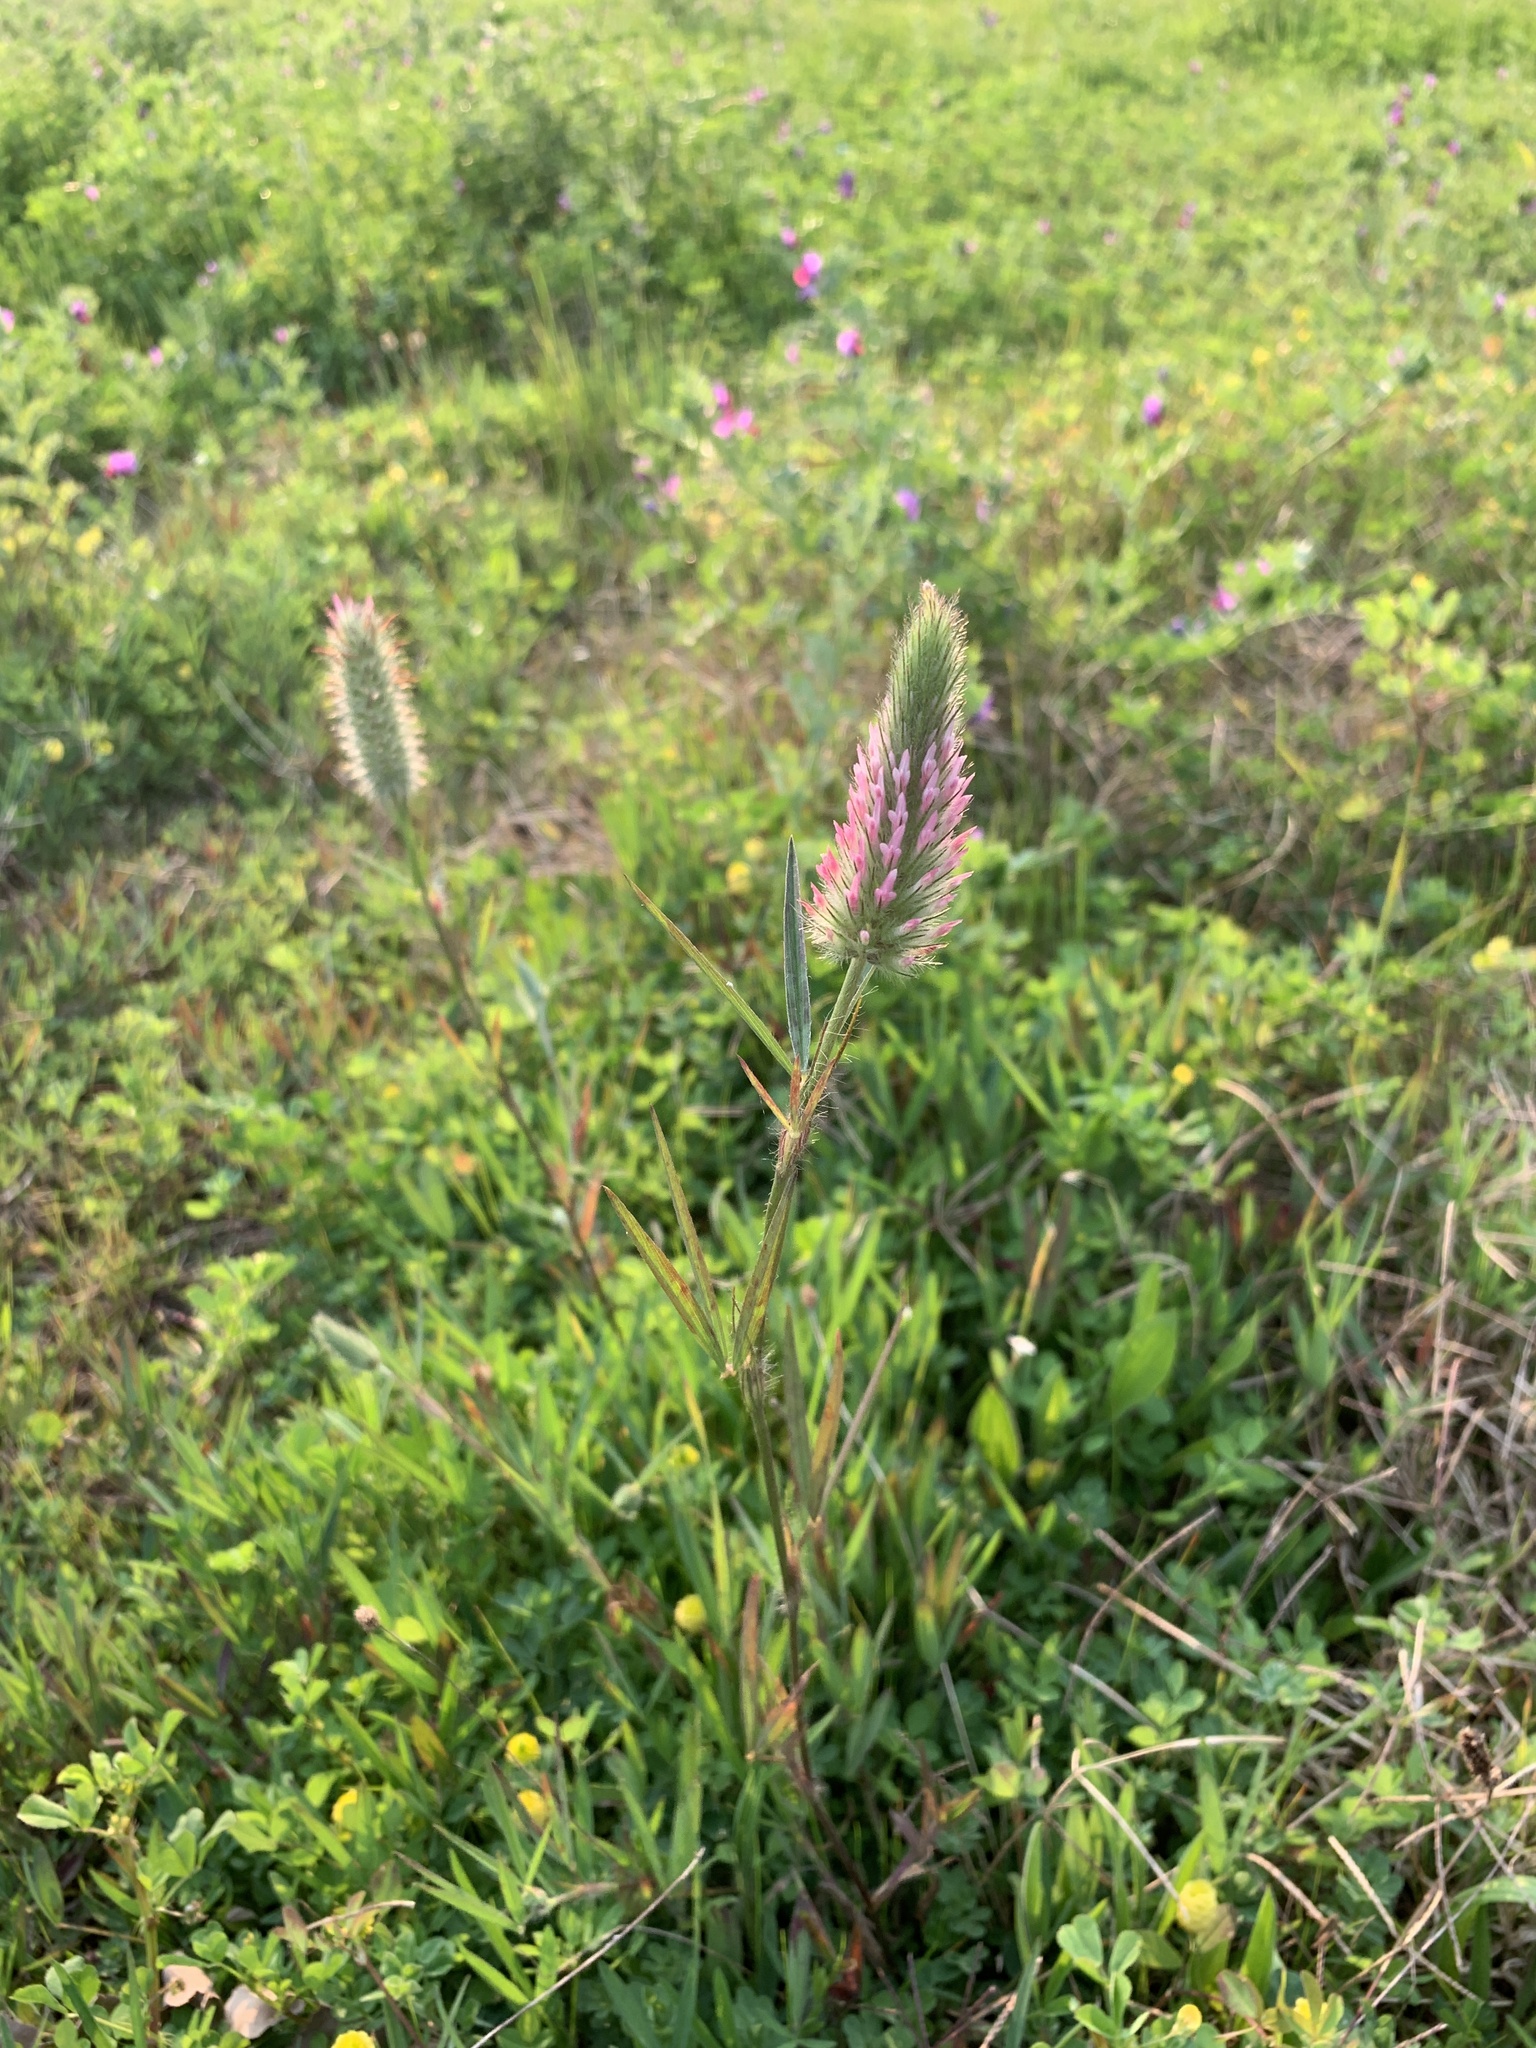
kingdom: Plantae
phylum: Tracheophyta
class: Magnoliopsida
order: Fabales
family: Fabaceae
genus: Trifolium
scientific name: Trifolium angustifolium
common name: Narrow clover
